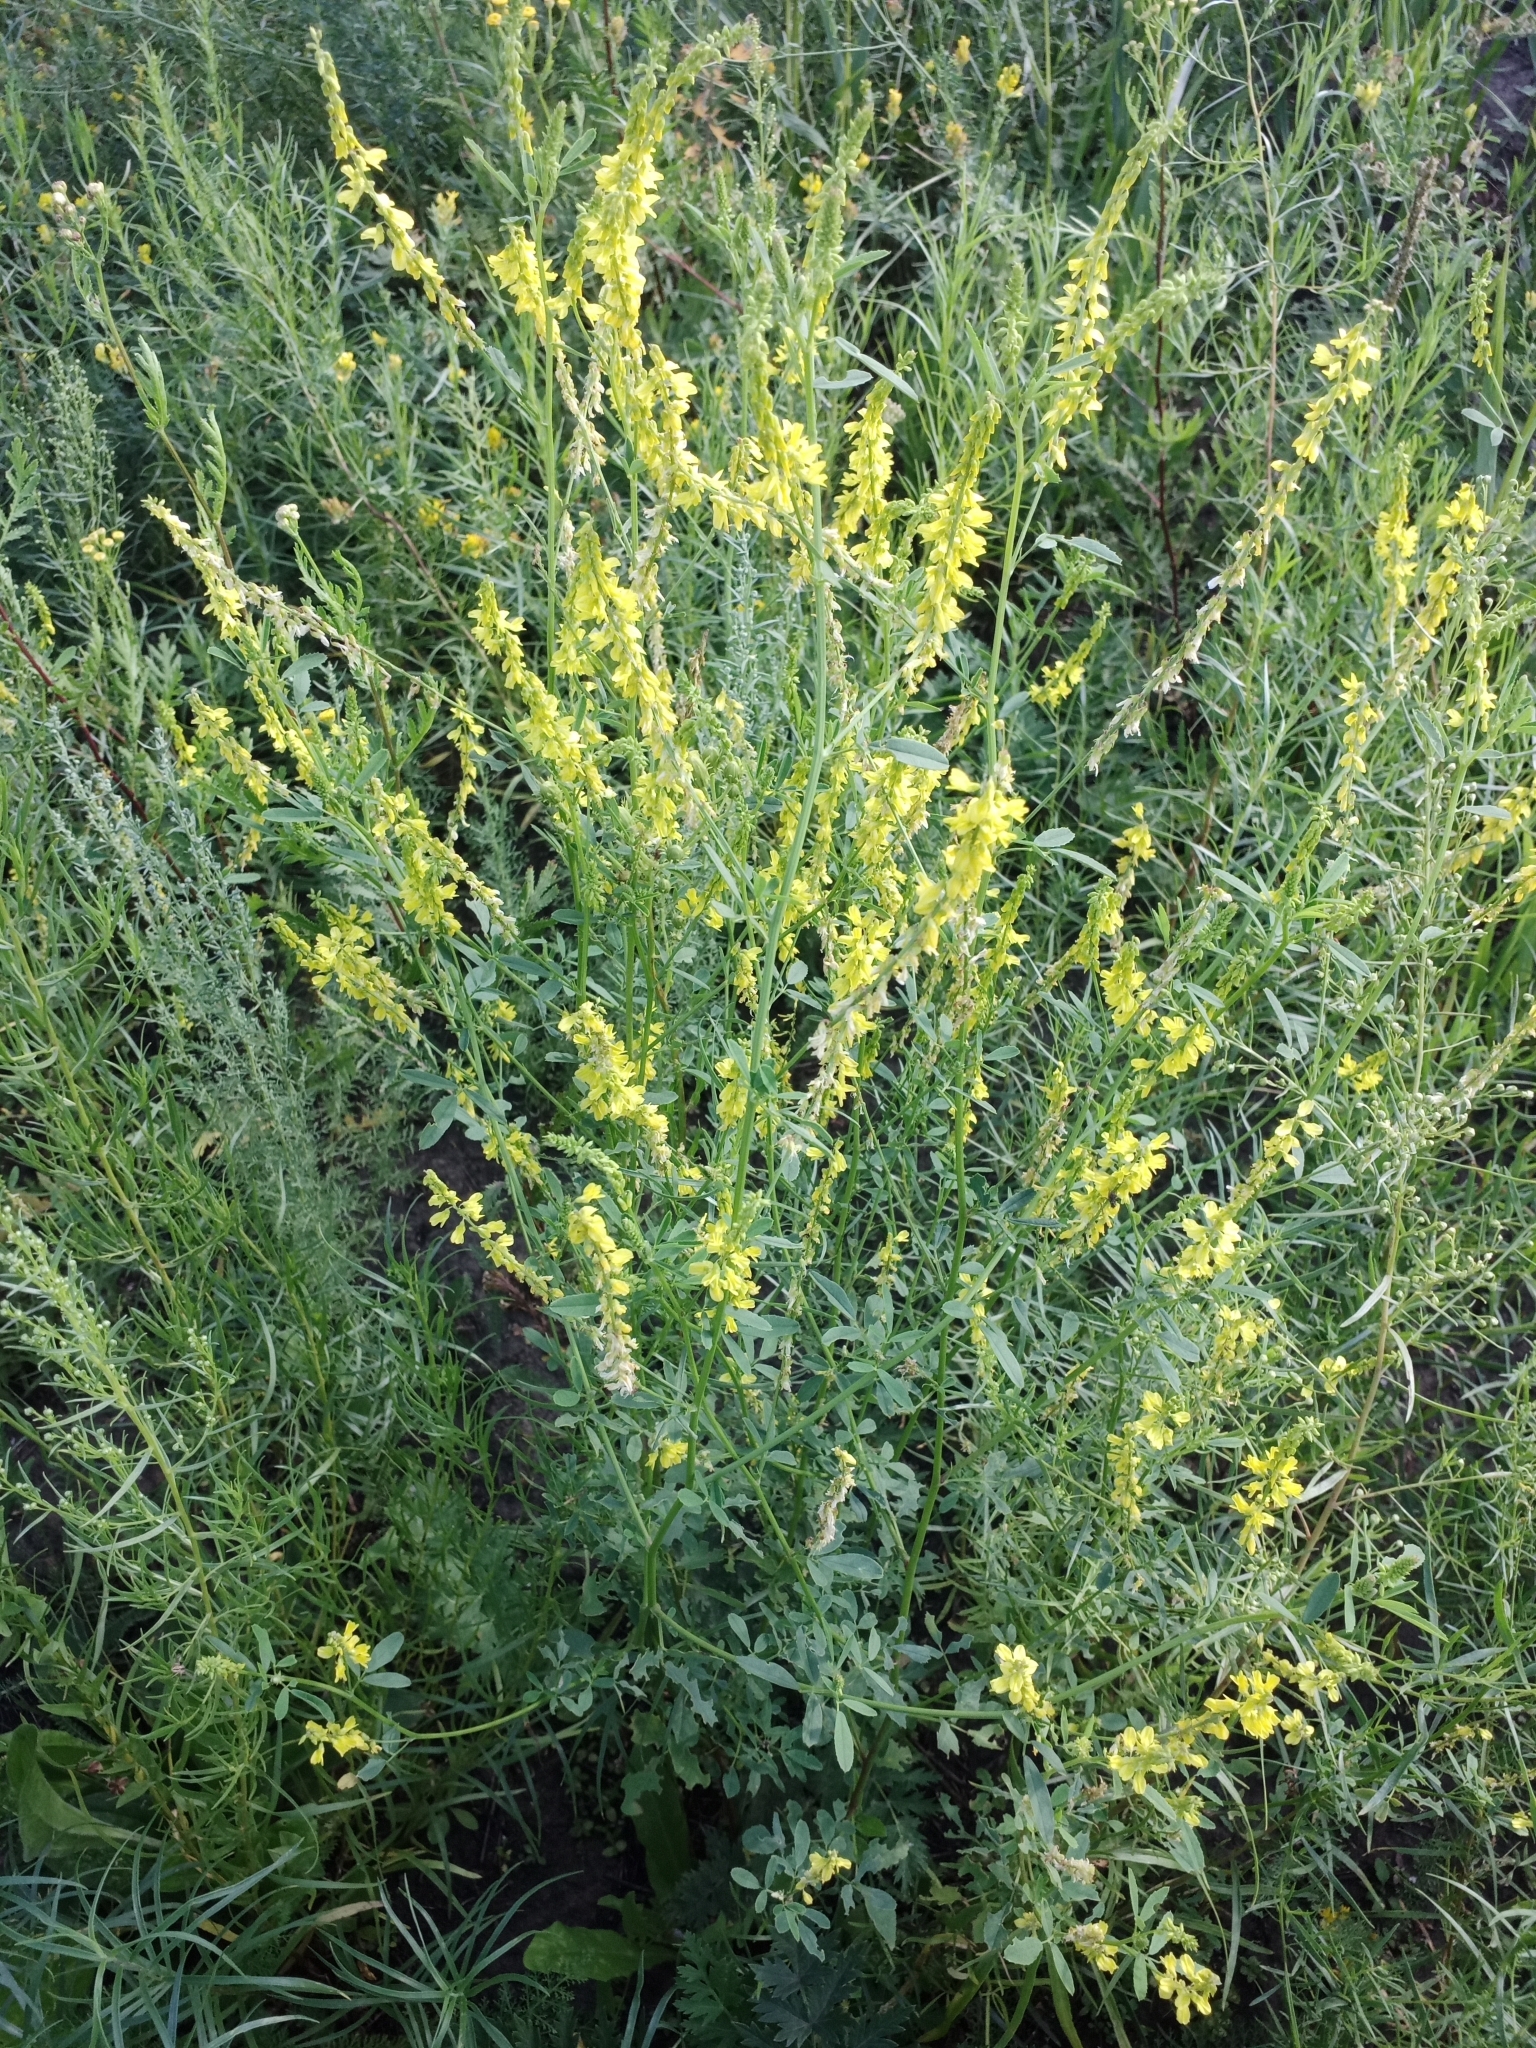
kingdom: Plantae
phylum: Tracheophyta
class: Magnoliopsida
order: Fabales
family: Fabaceae
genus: Melilotus
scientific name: Melilotus officinalis
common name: Sweetclover
